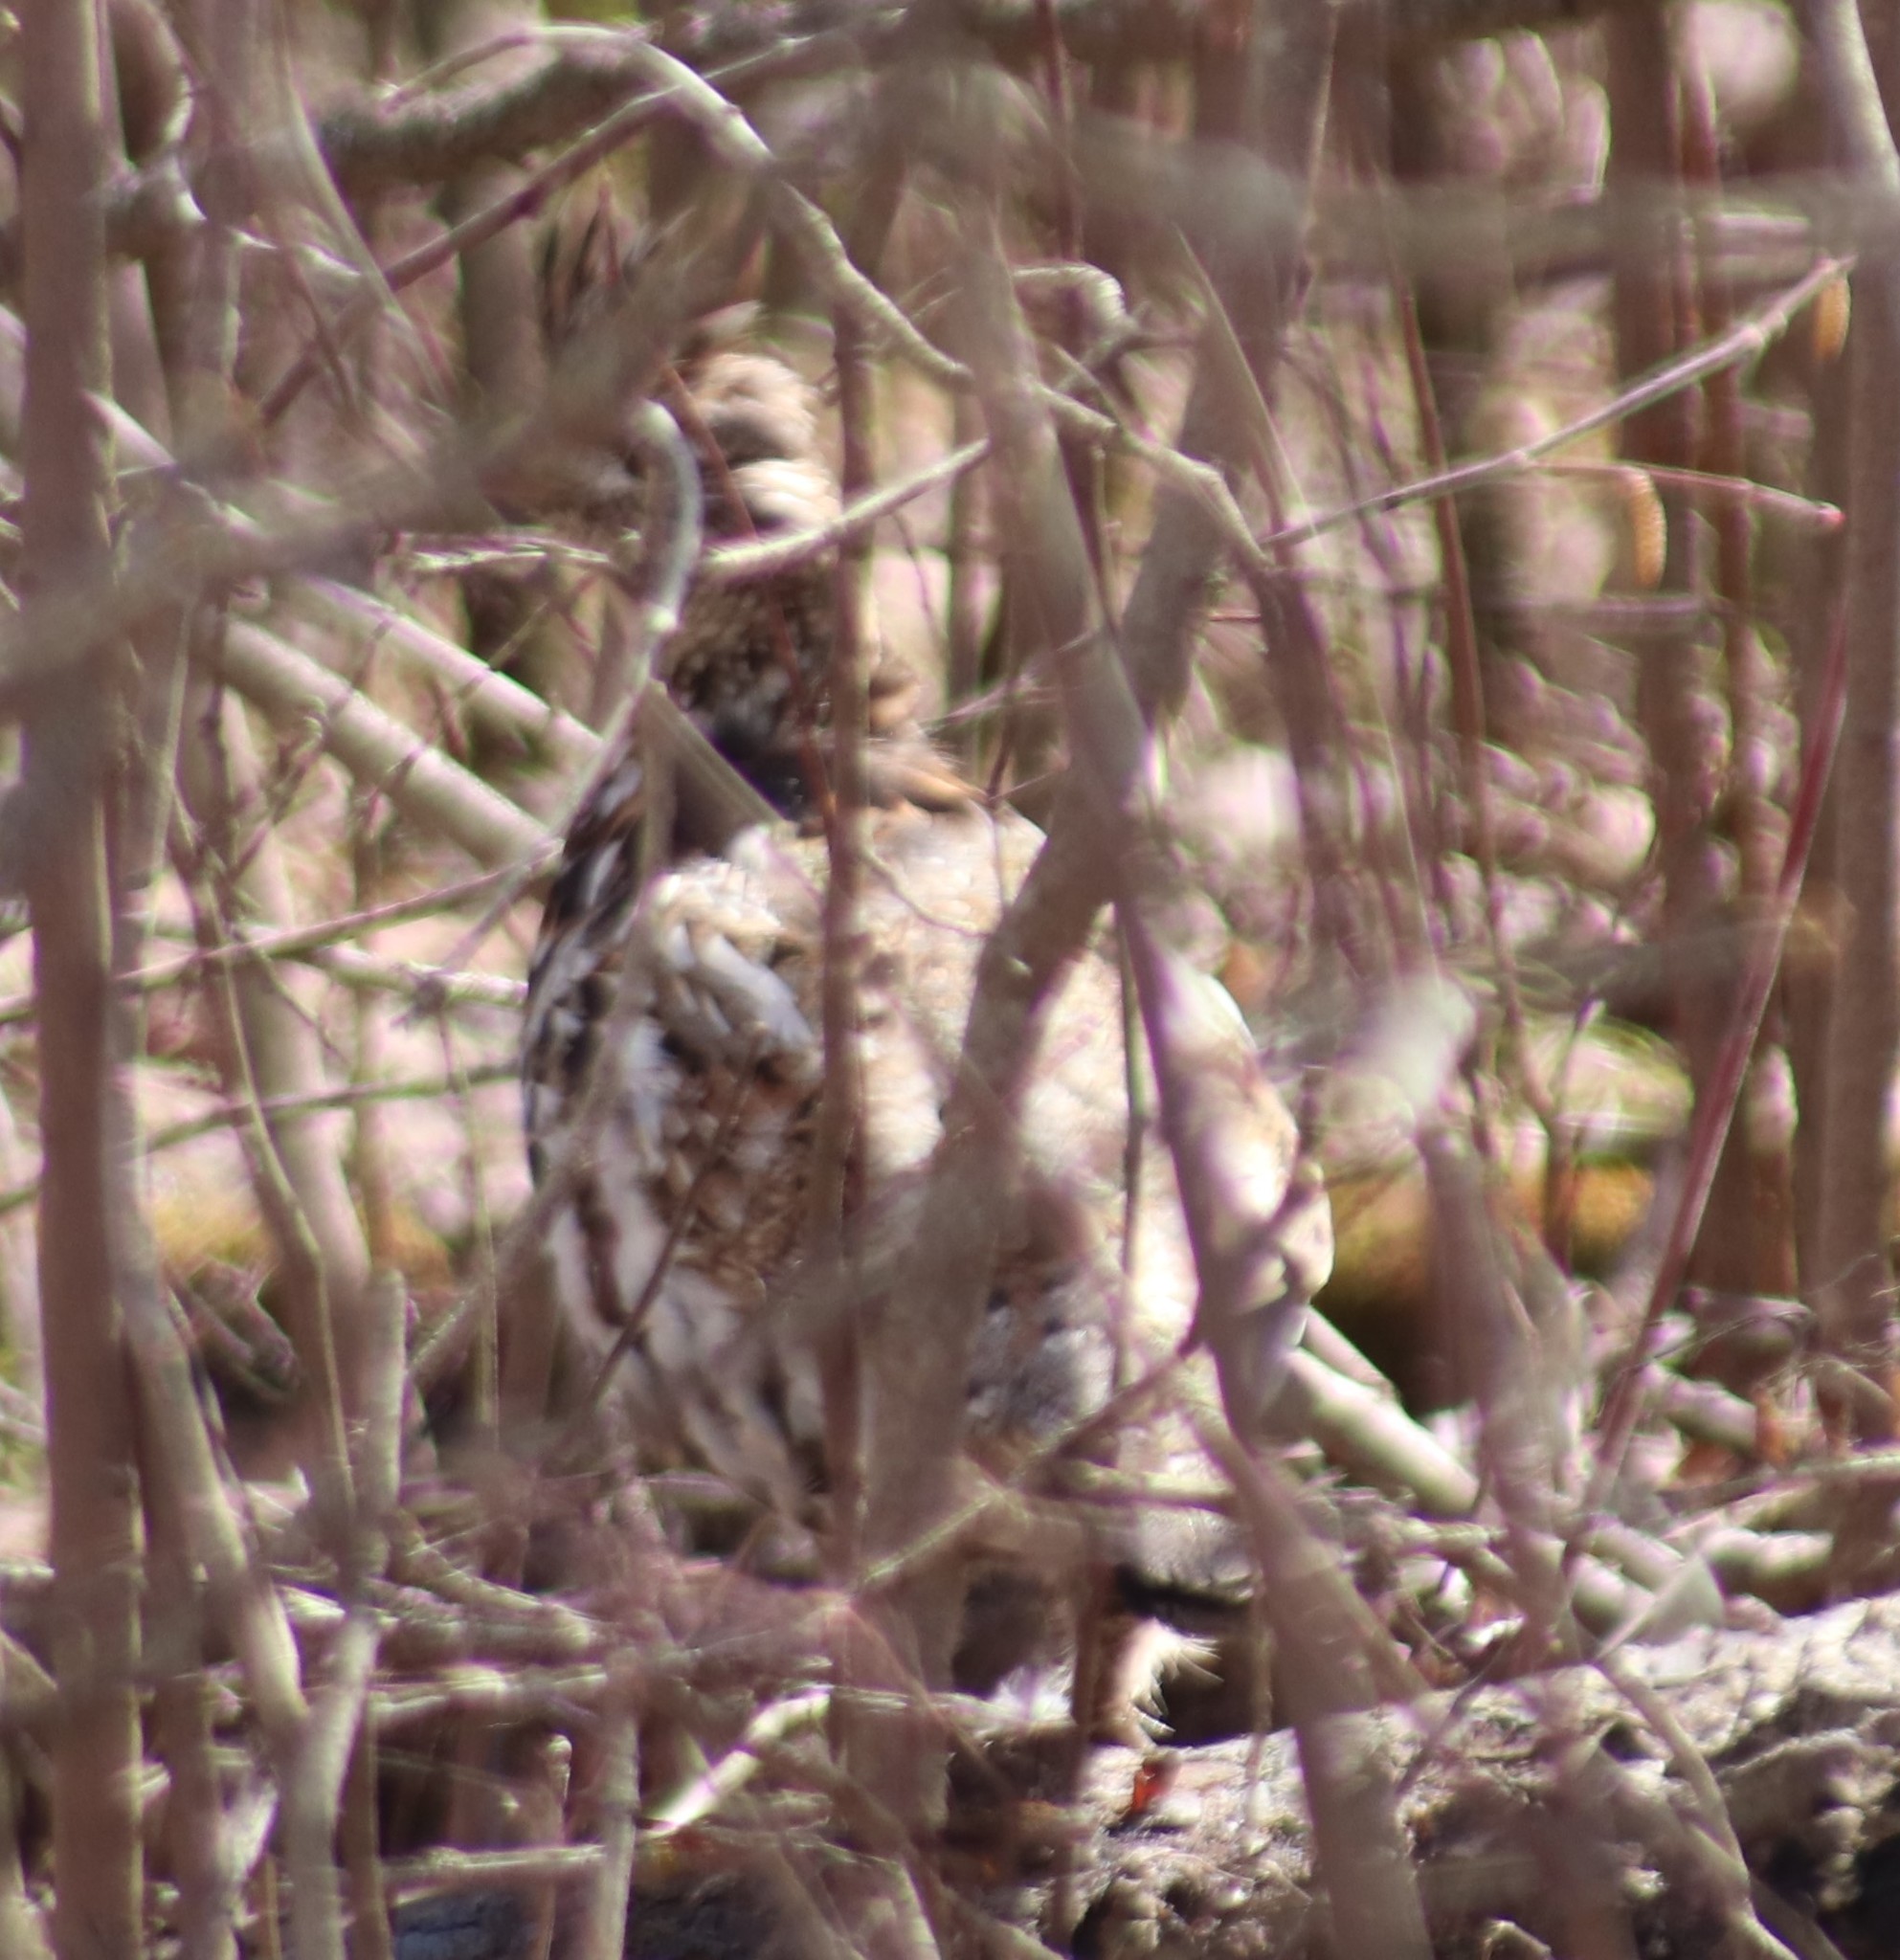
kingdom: Animalia
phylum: Chordata
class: Aves
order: Galliformes
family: Phasianidae
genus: Bonasa
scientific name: Bonasa umbellus
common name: Ruffed grouse
